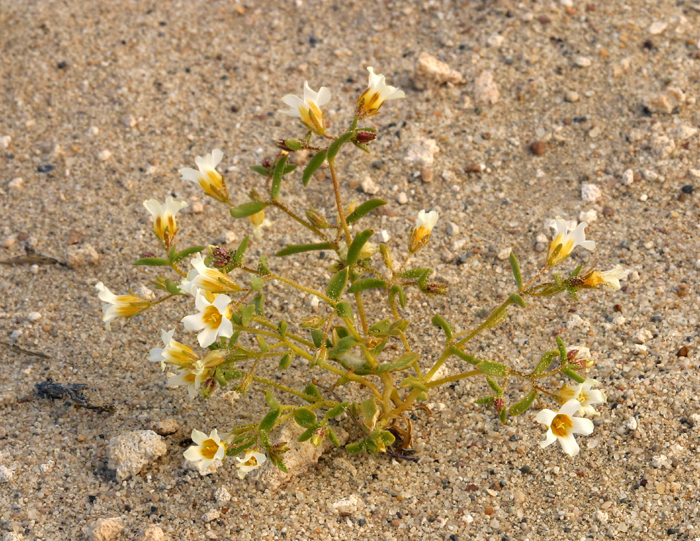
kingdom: Plantae
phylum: Tracheophyta
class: Magnoliopsida
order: Ericales
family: Polemoniaceae
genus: Linanthus
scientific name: Linanthus campanulatus
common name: Bellshape gilia
